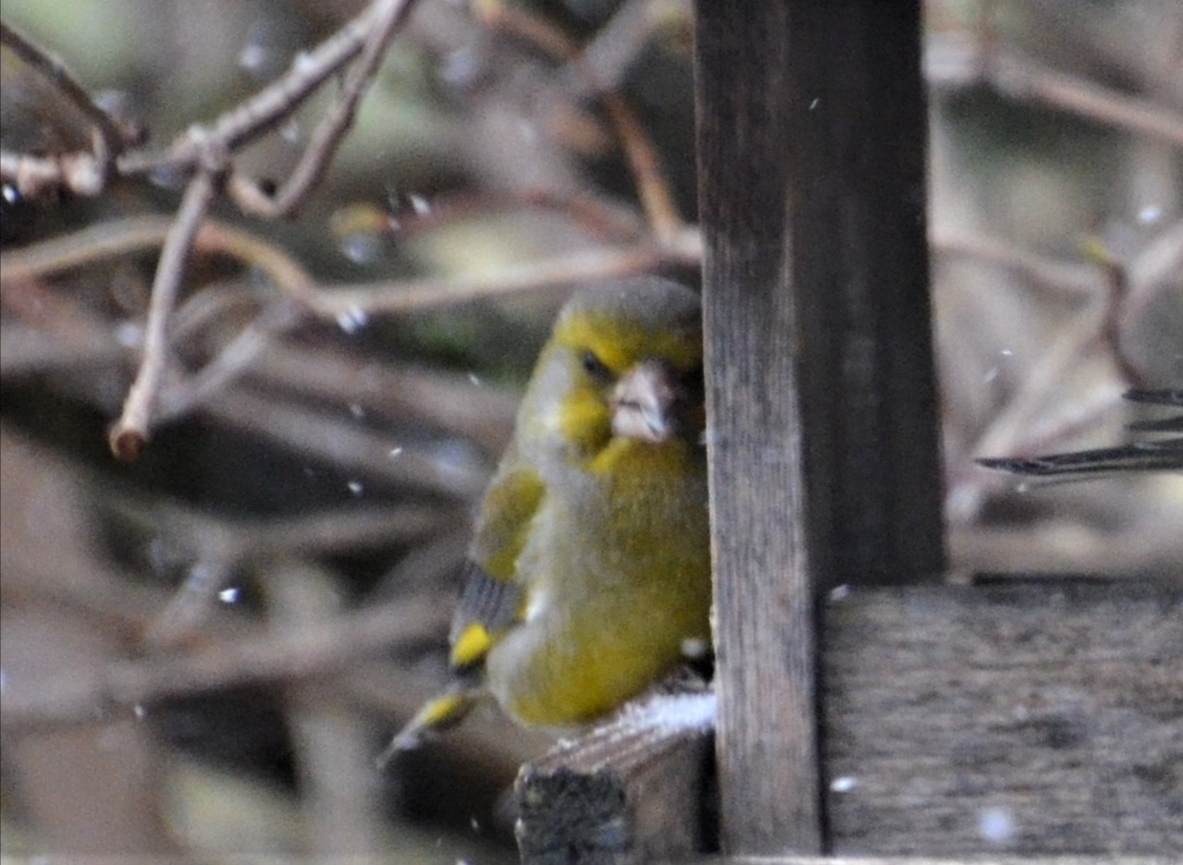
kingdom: Plantae
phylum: Tracheophyta
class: Liliopsida
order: Poales
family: Poaceae
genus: Chloris
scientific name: Chloris chloris
